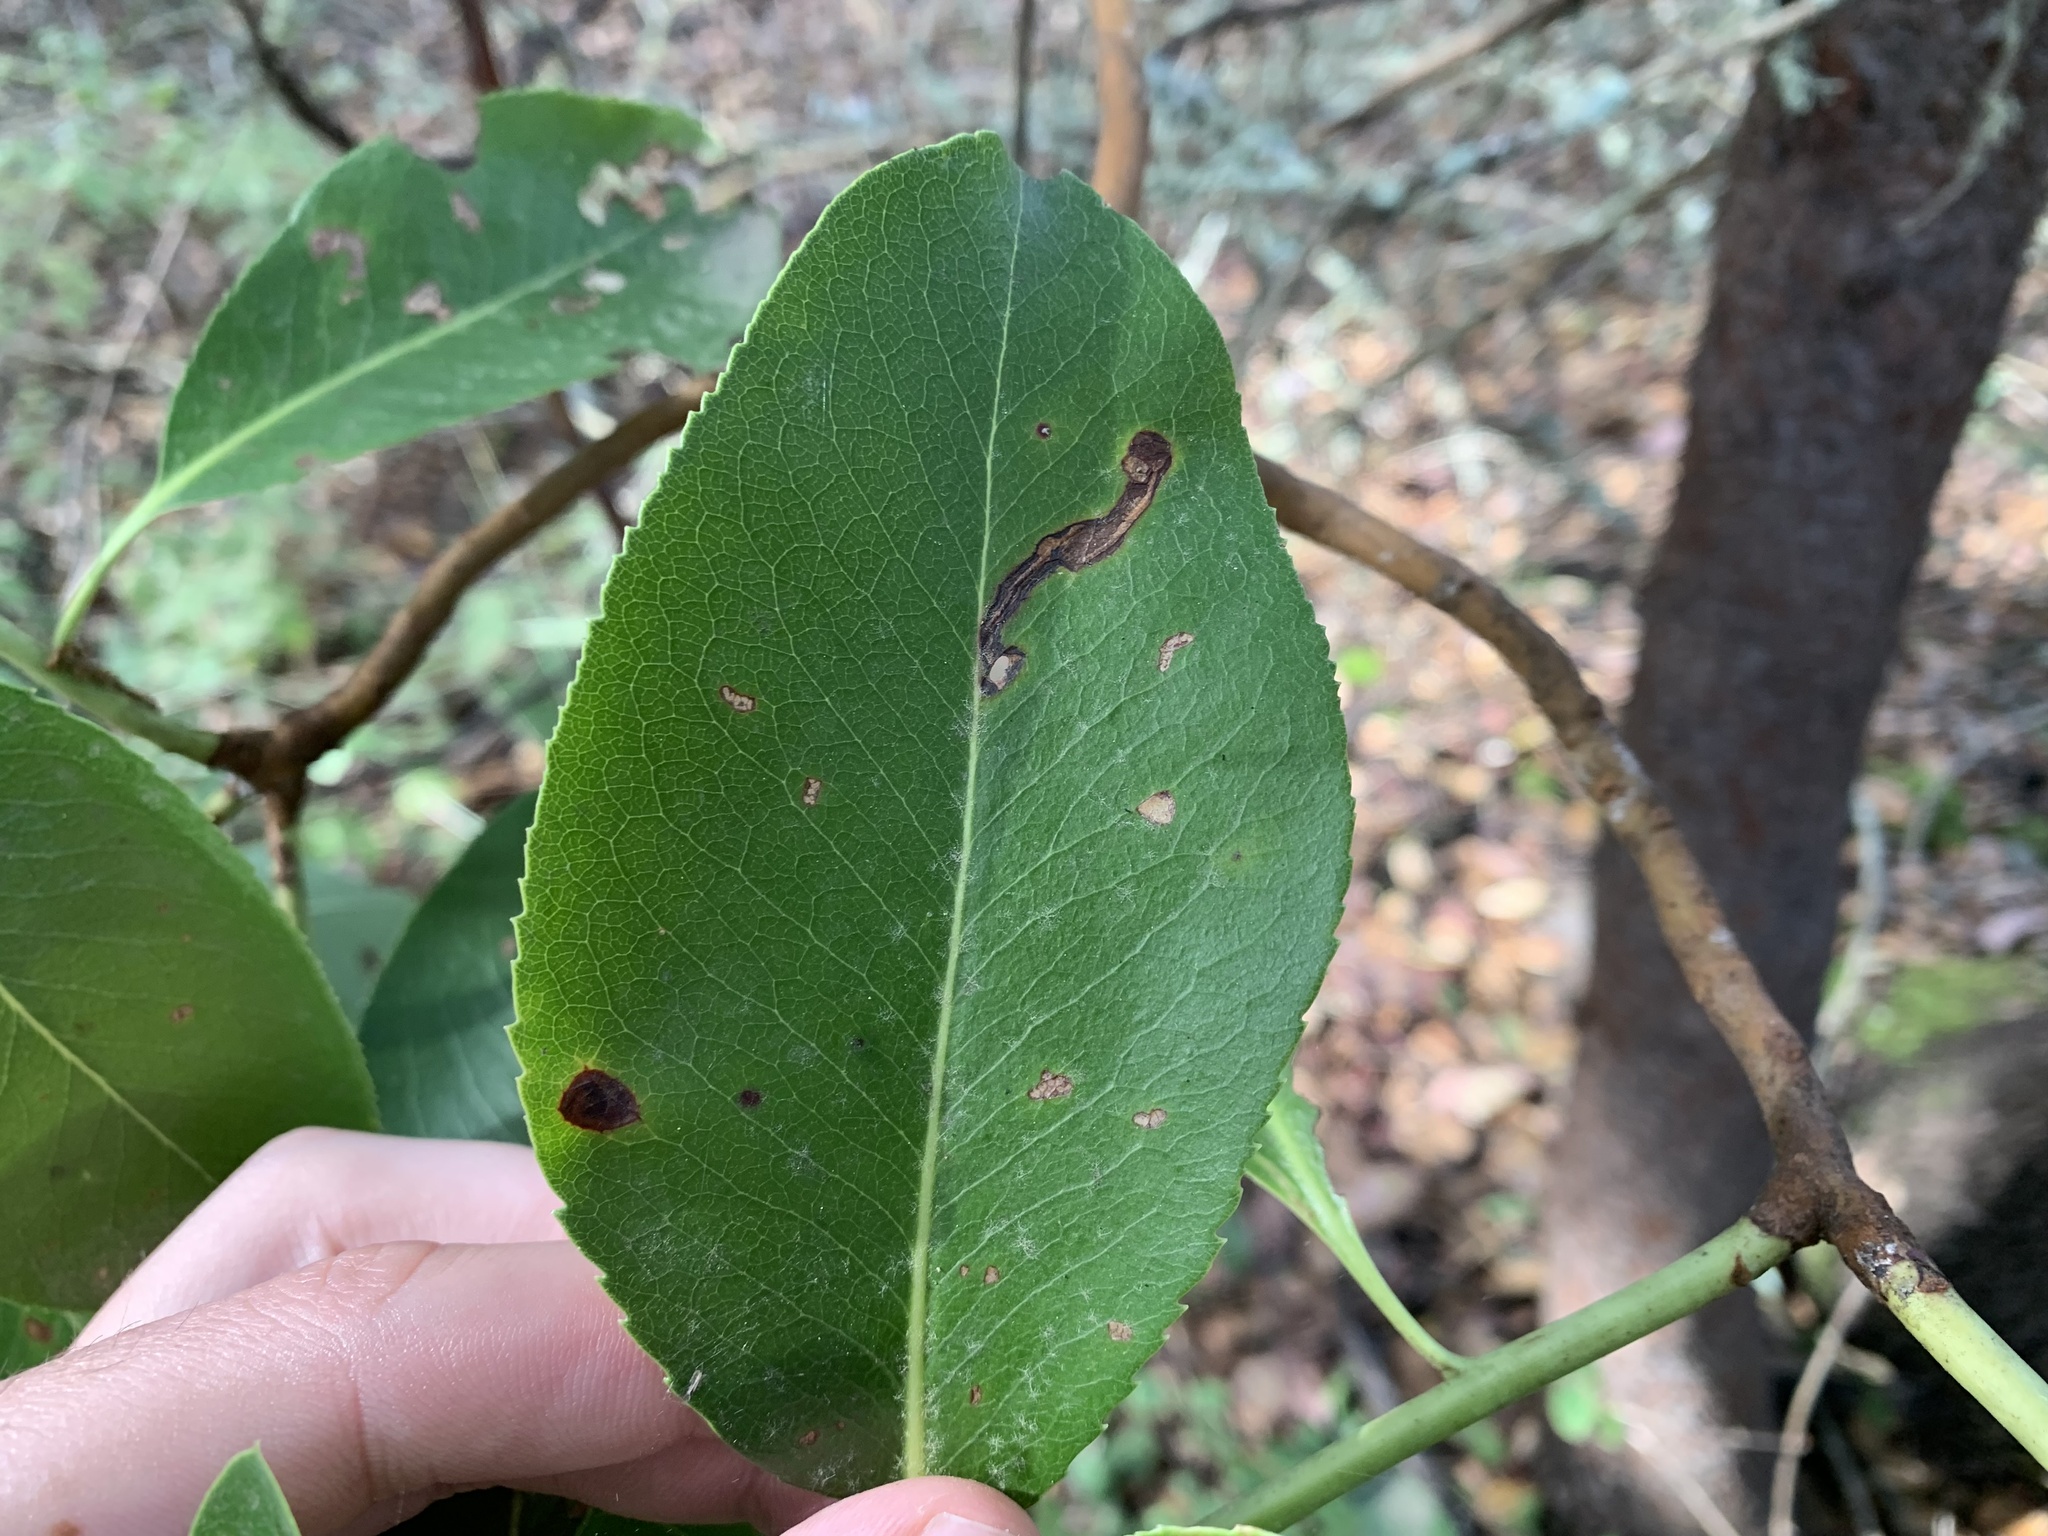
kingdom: Animalia
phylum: Arthropoda
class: Insecta
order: Lepidoptera
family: Coleophoridae
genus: Coleophora
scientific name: Coleophora glaucella
